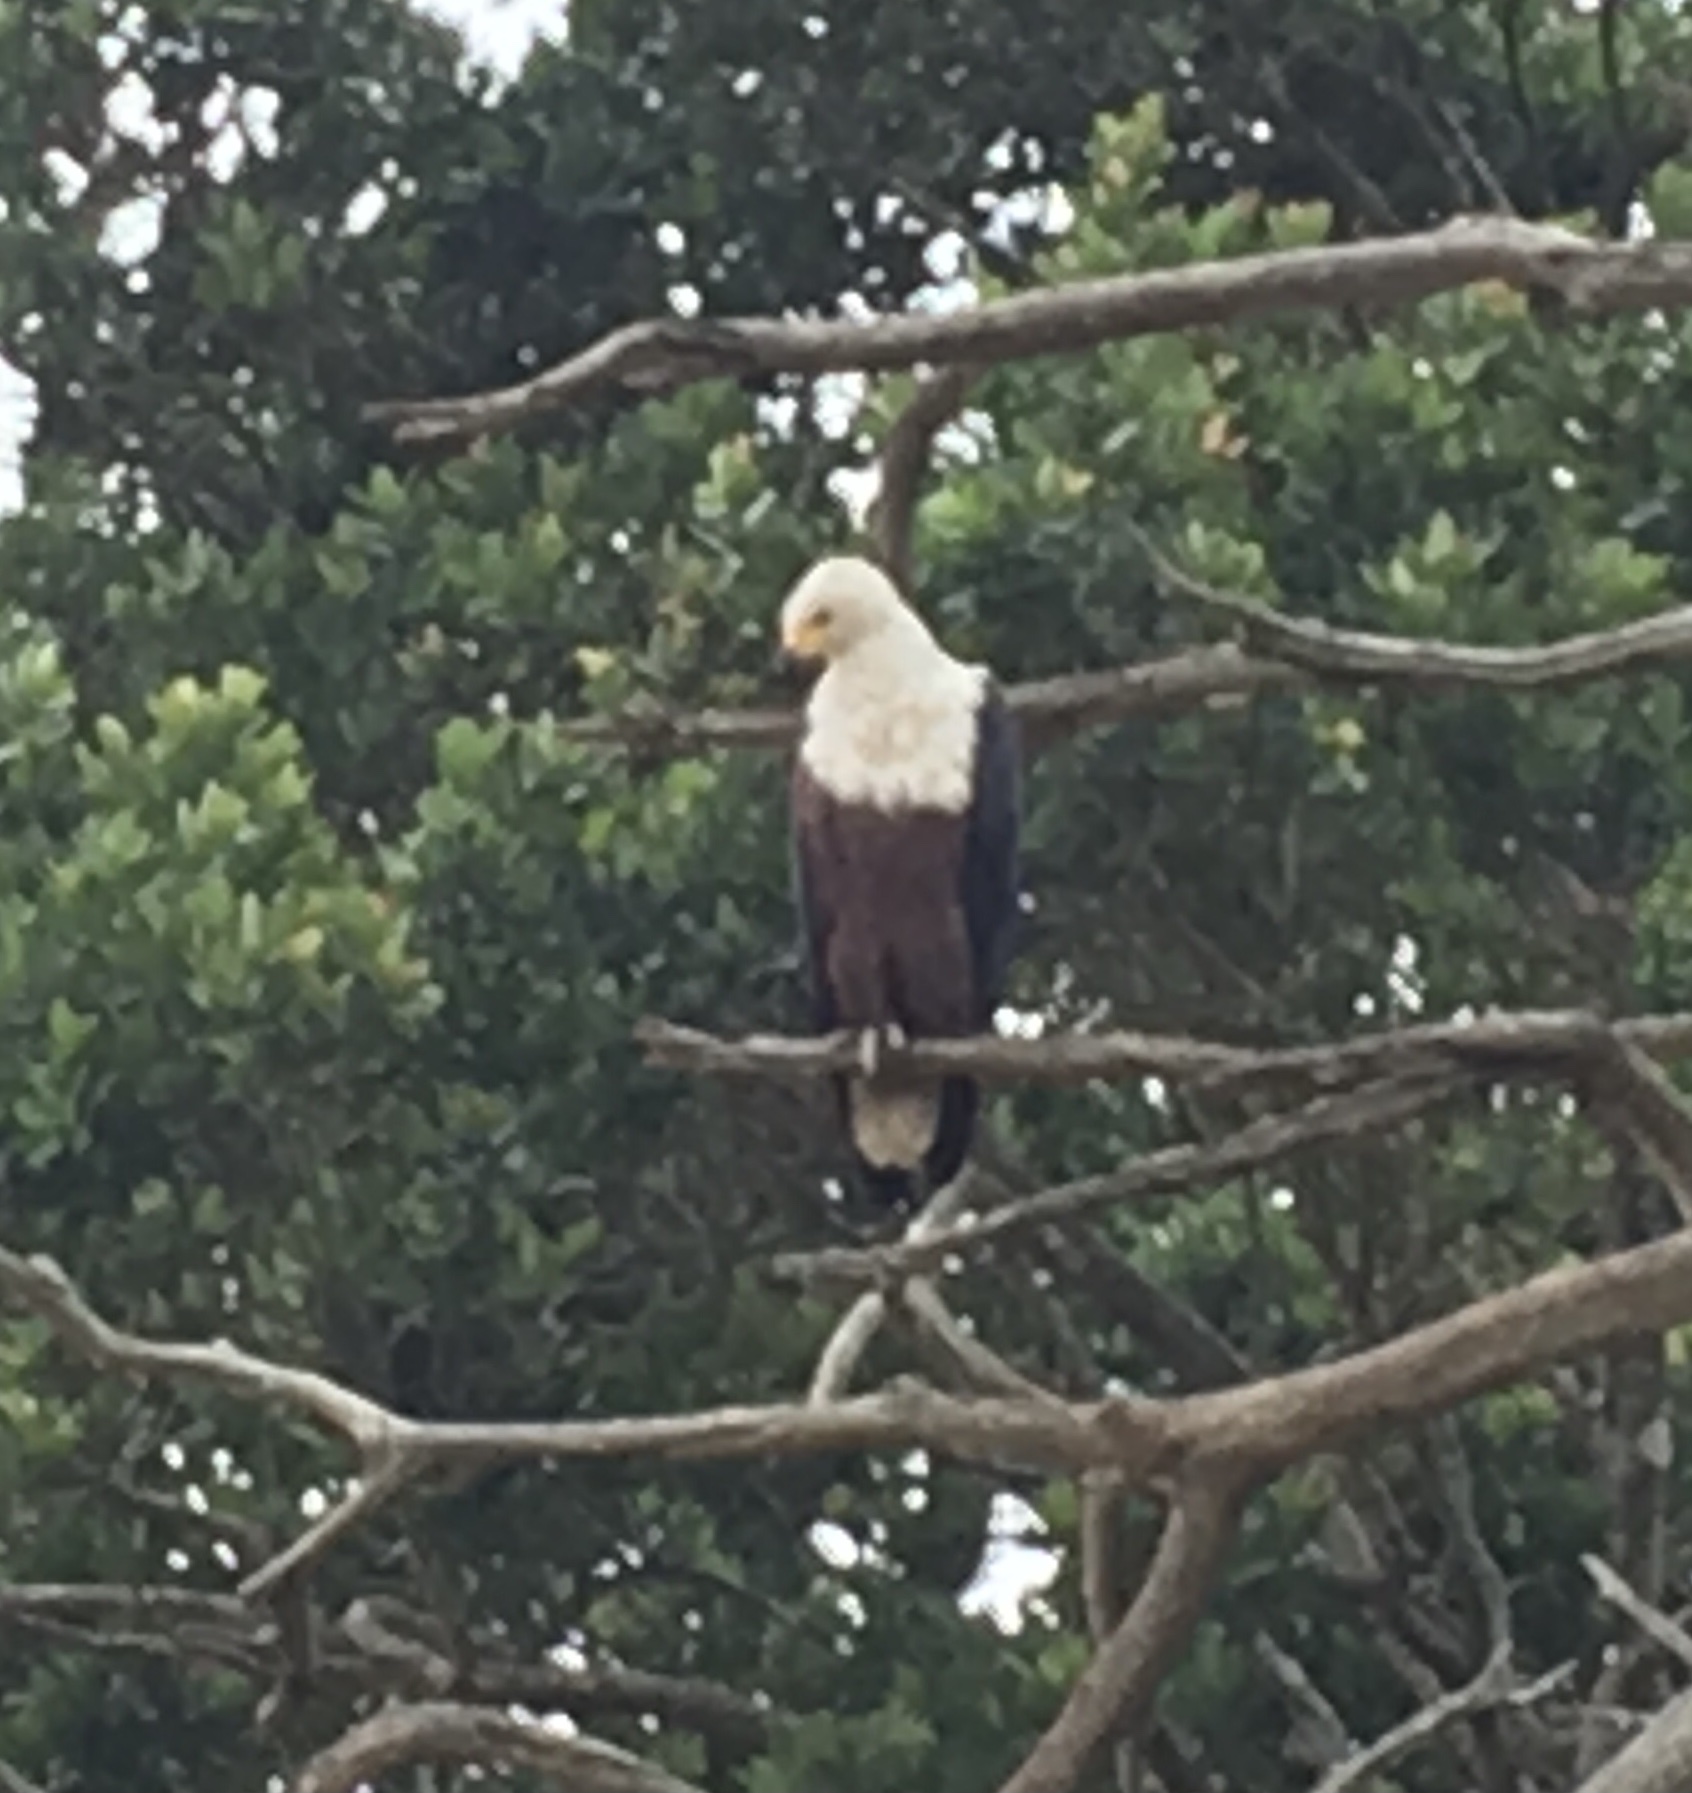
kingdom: Animalia
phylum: Chordata
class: Aves
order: Accipitriformes
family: Accipitridae
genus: Haliaeetus
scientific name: Haliaeetus vocifer
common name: African fish eagle
